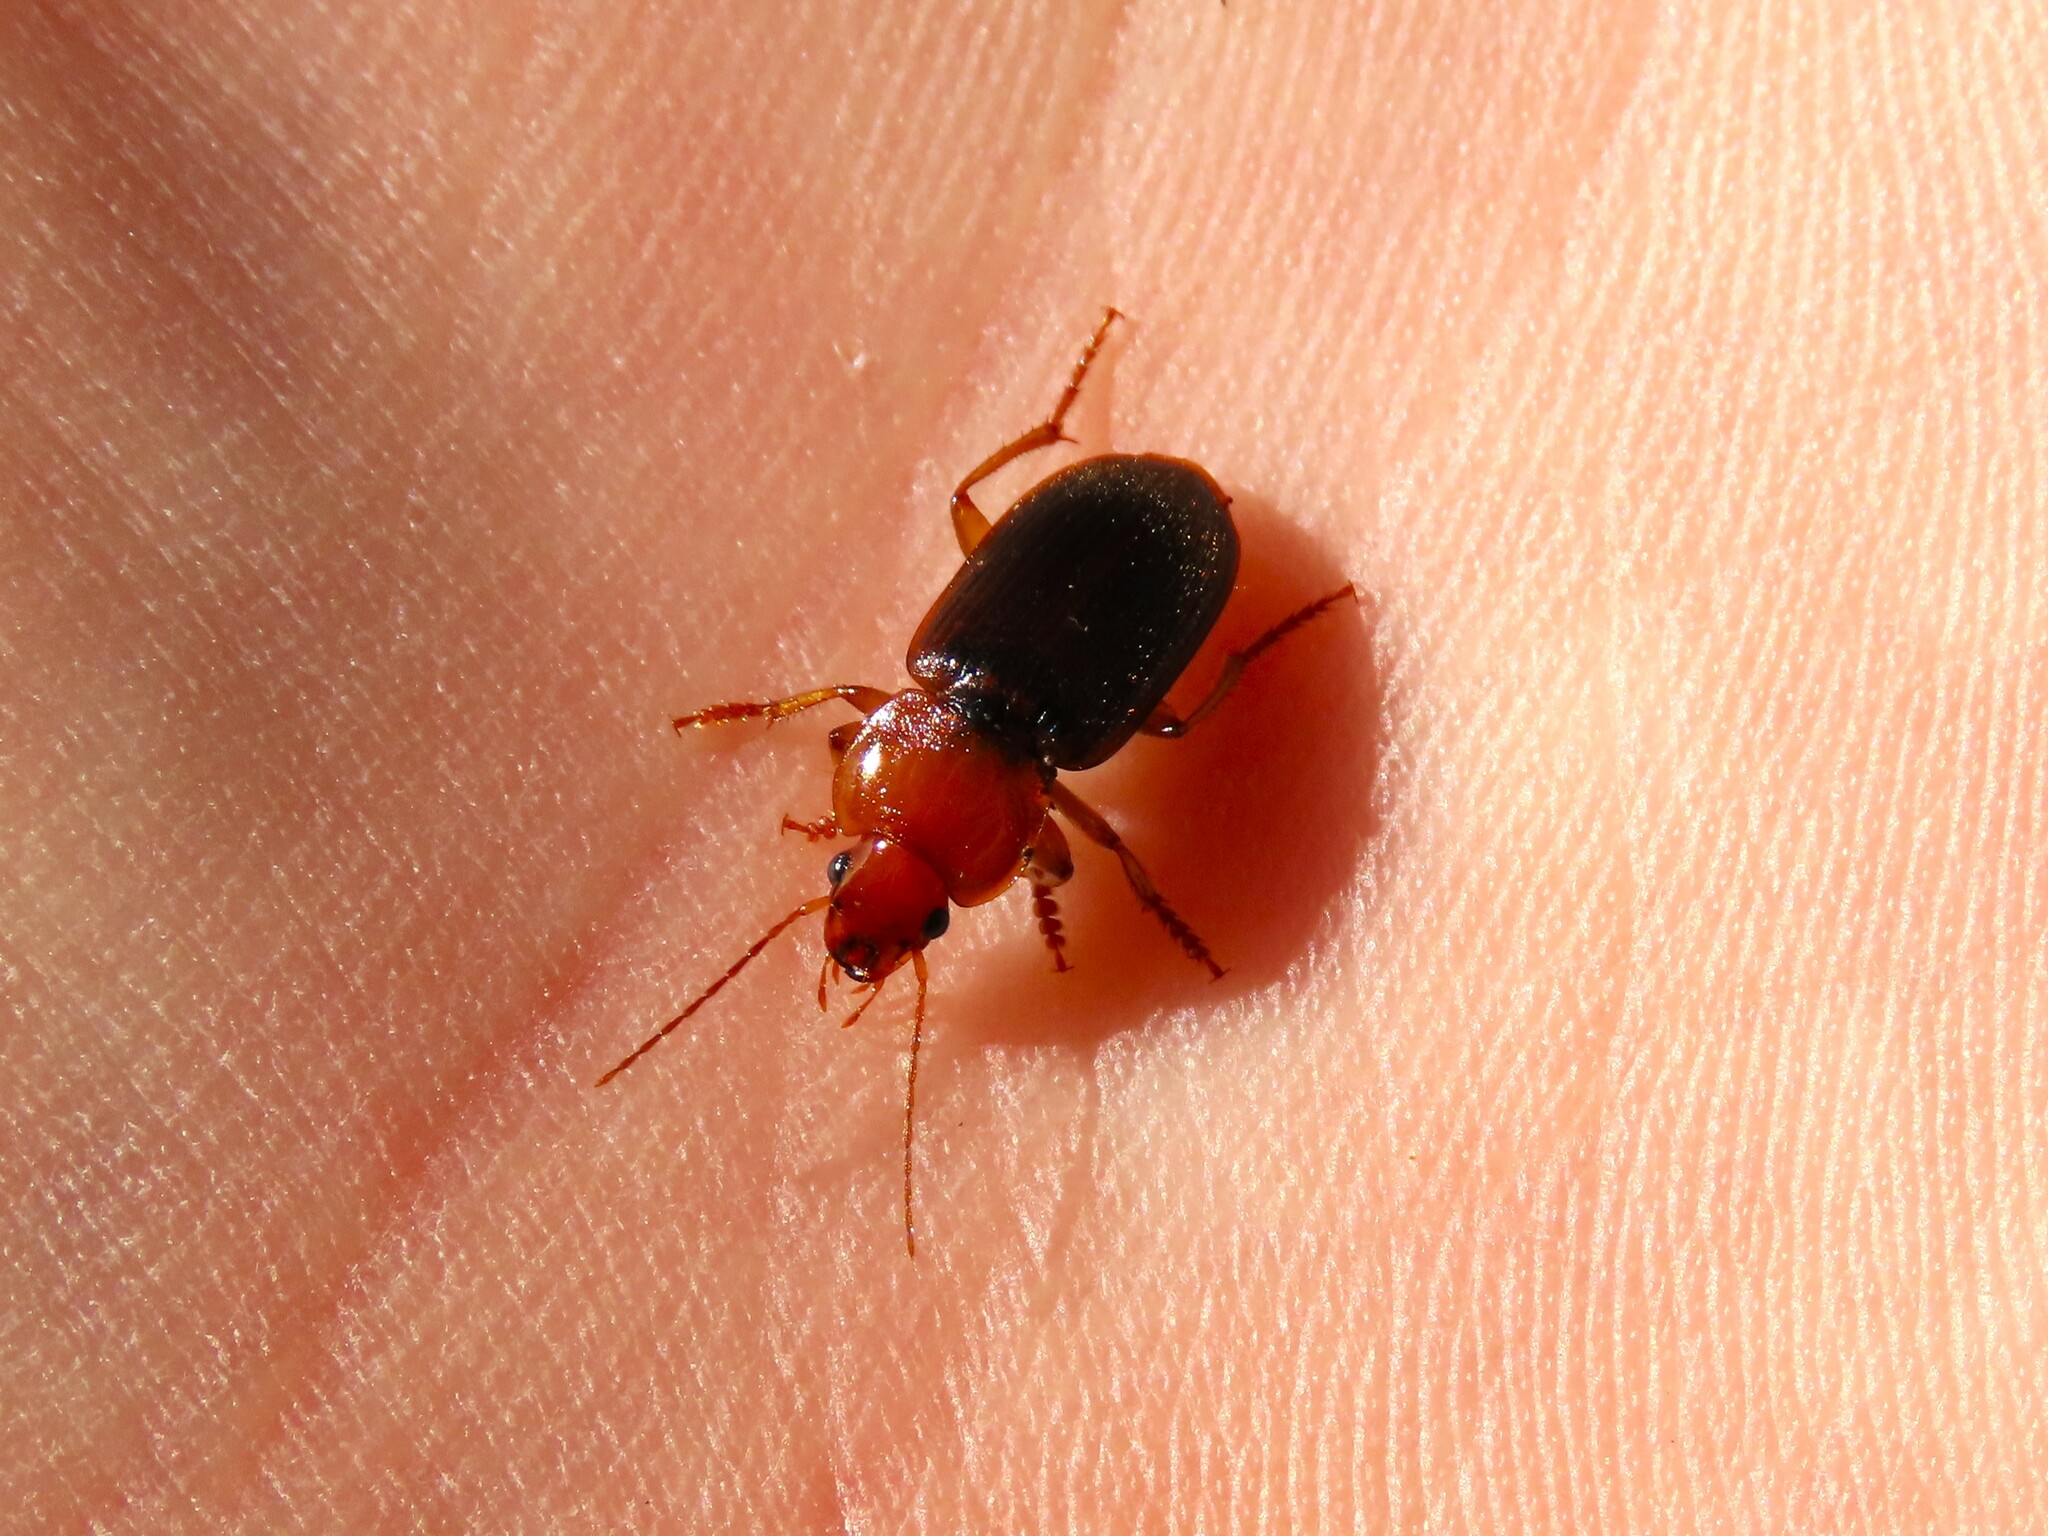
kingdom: Animalia
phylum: Arthropoda
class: Insecta
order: Coleoptera
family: Carabidae
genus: Amphasia
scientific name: Amphasia interstitialis
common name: Red-headed ground beetle
